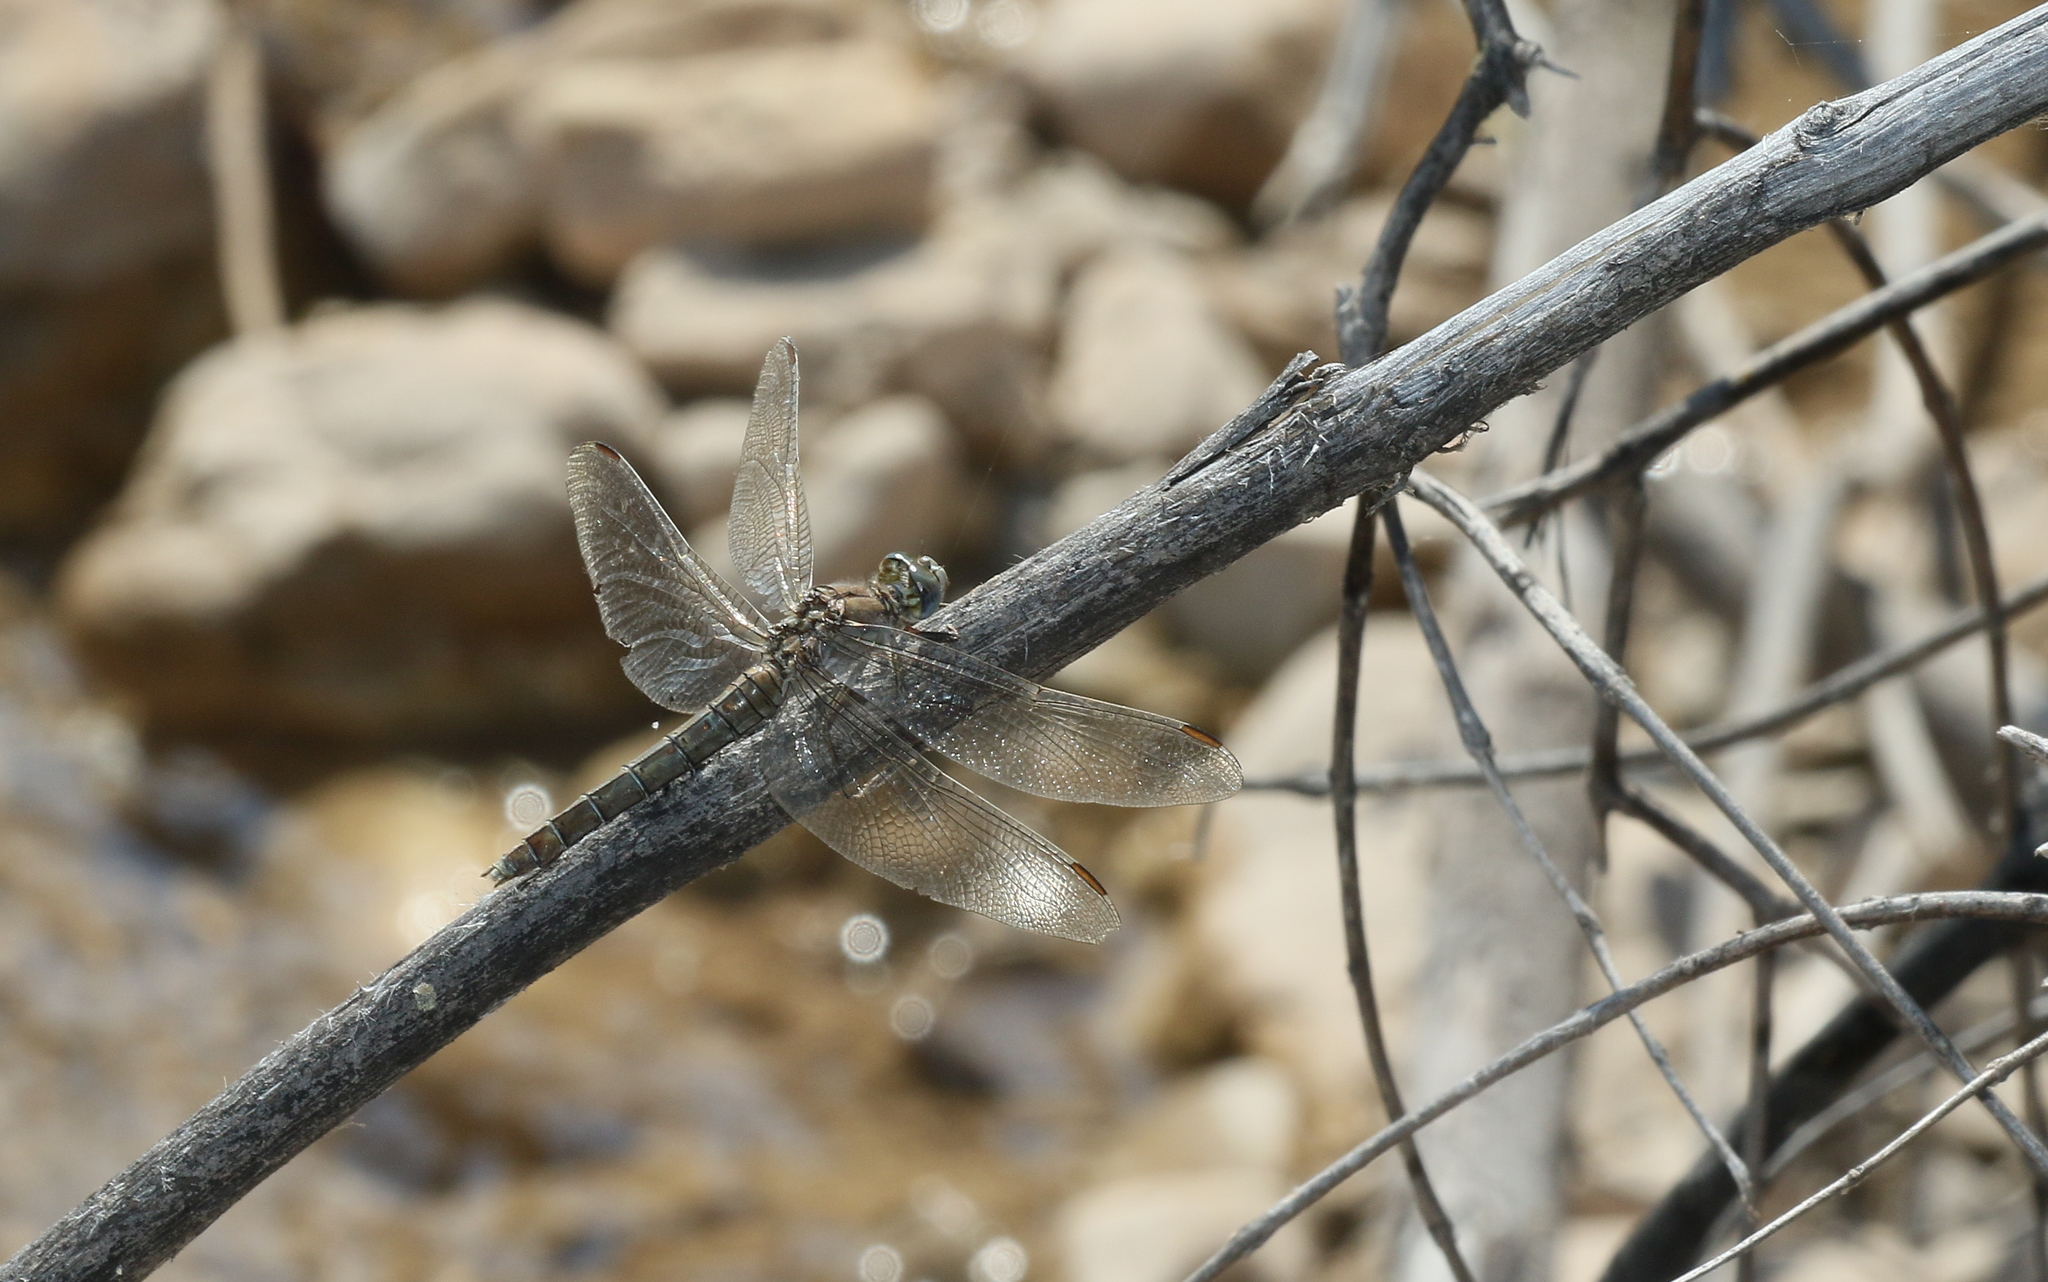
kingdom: Animalia
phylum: Arthropoda
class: Insecta
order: Odonata
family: Libellulidae
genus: Orthetrum
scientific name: Orthetrum brunneum
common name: Southern skimmer
